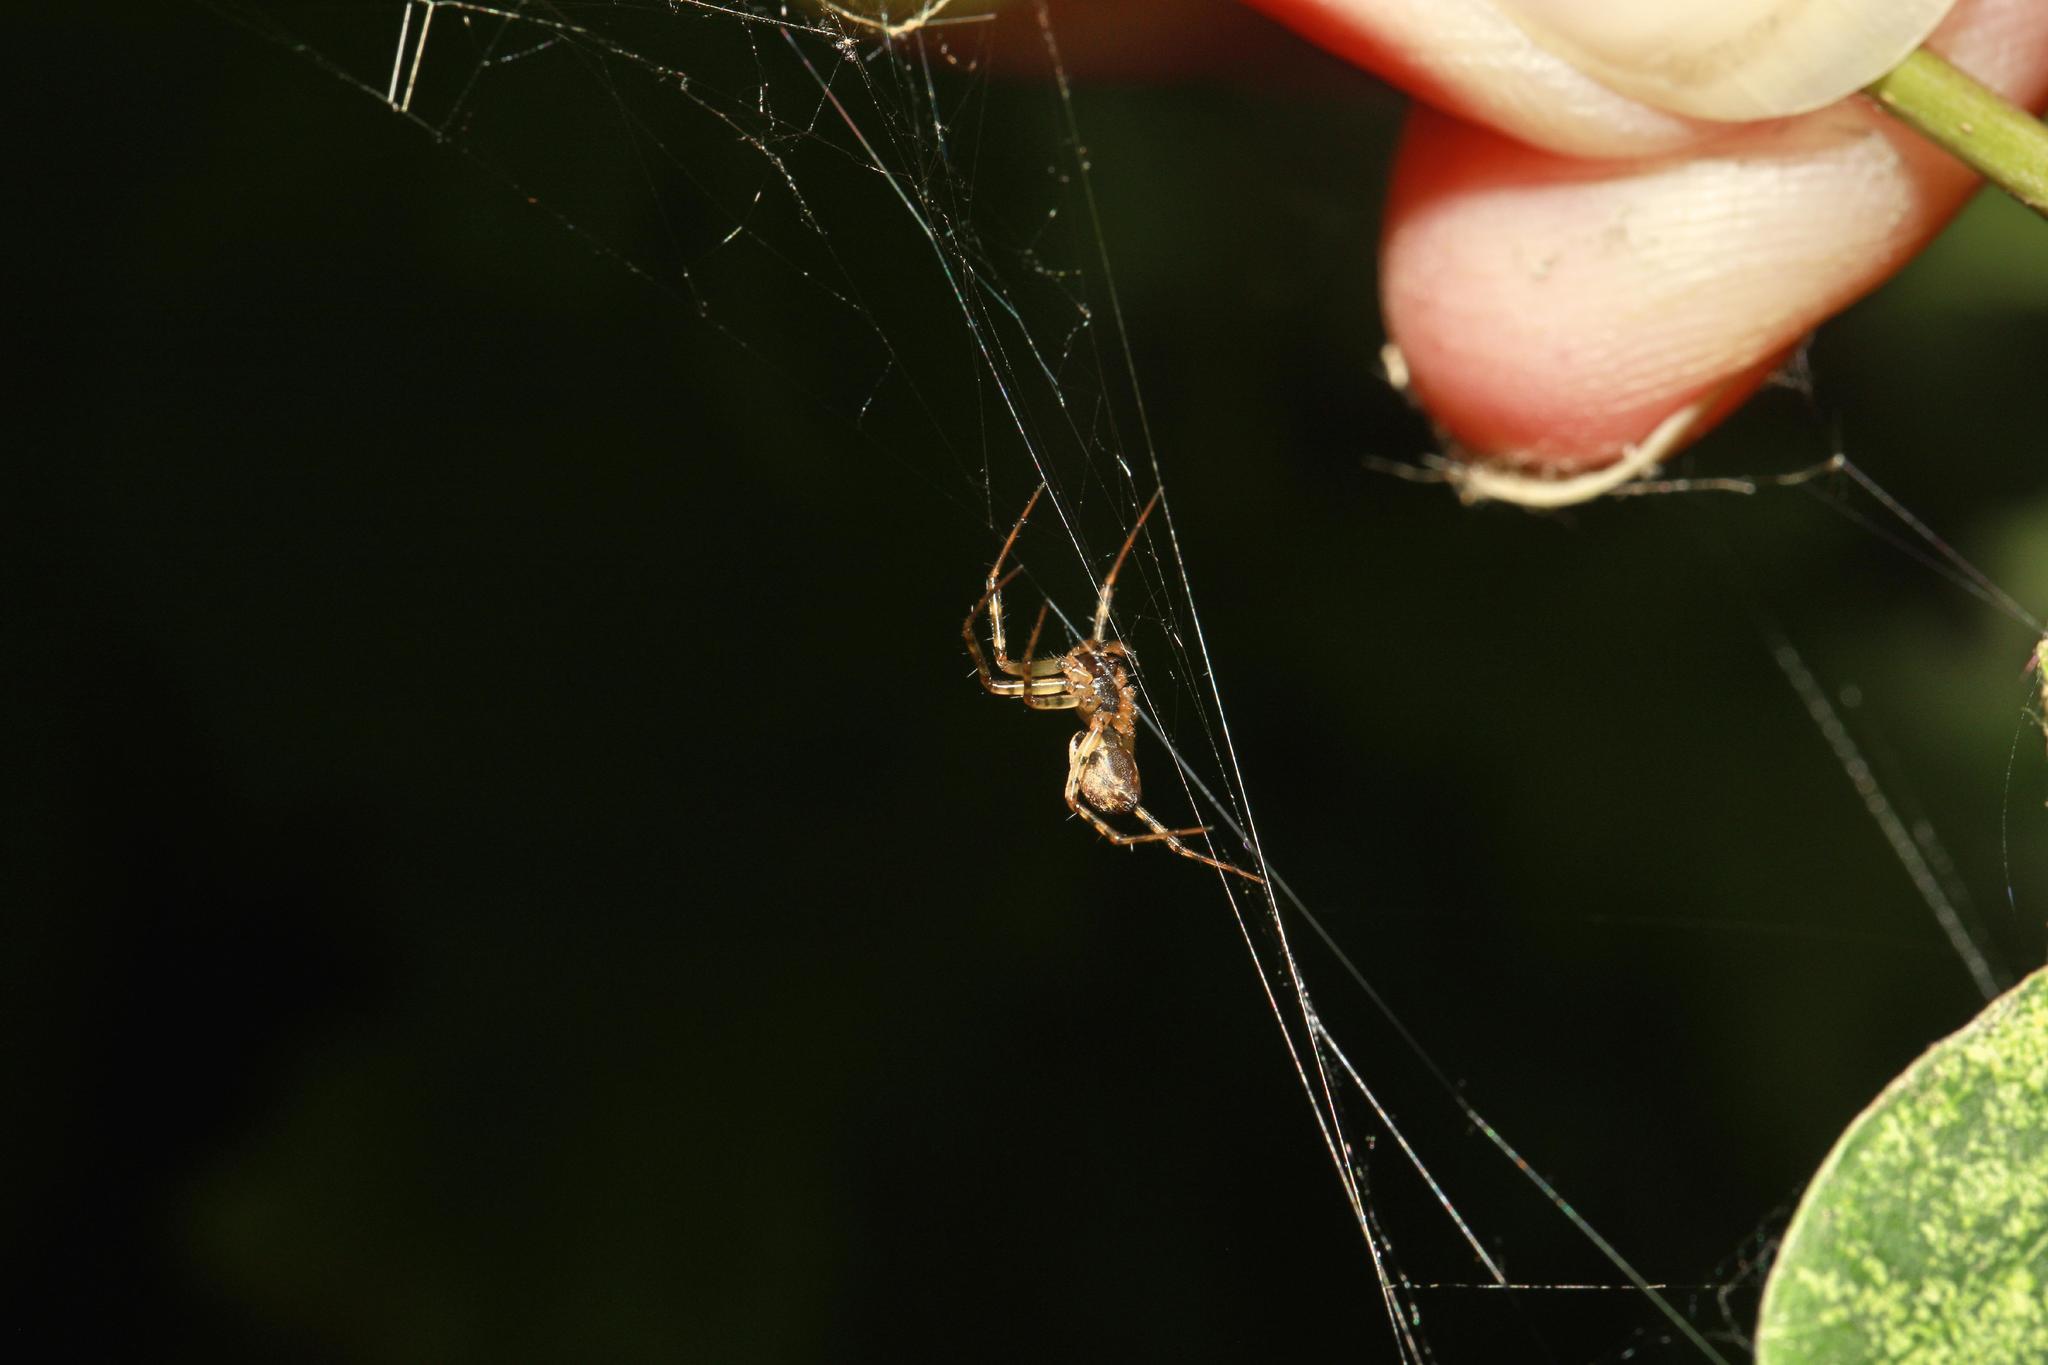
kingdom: Animalia
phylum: Arthropoda
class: Arachnida
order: Araneae
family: Tetragnathidae
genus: Metellina
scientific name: Metellina merianae
